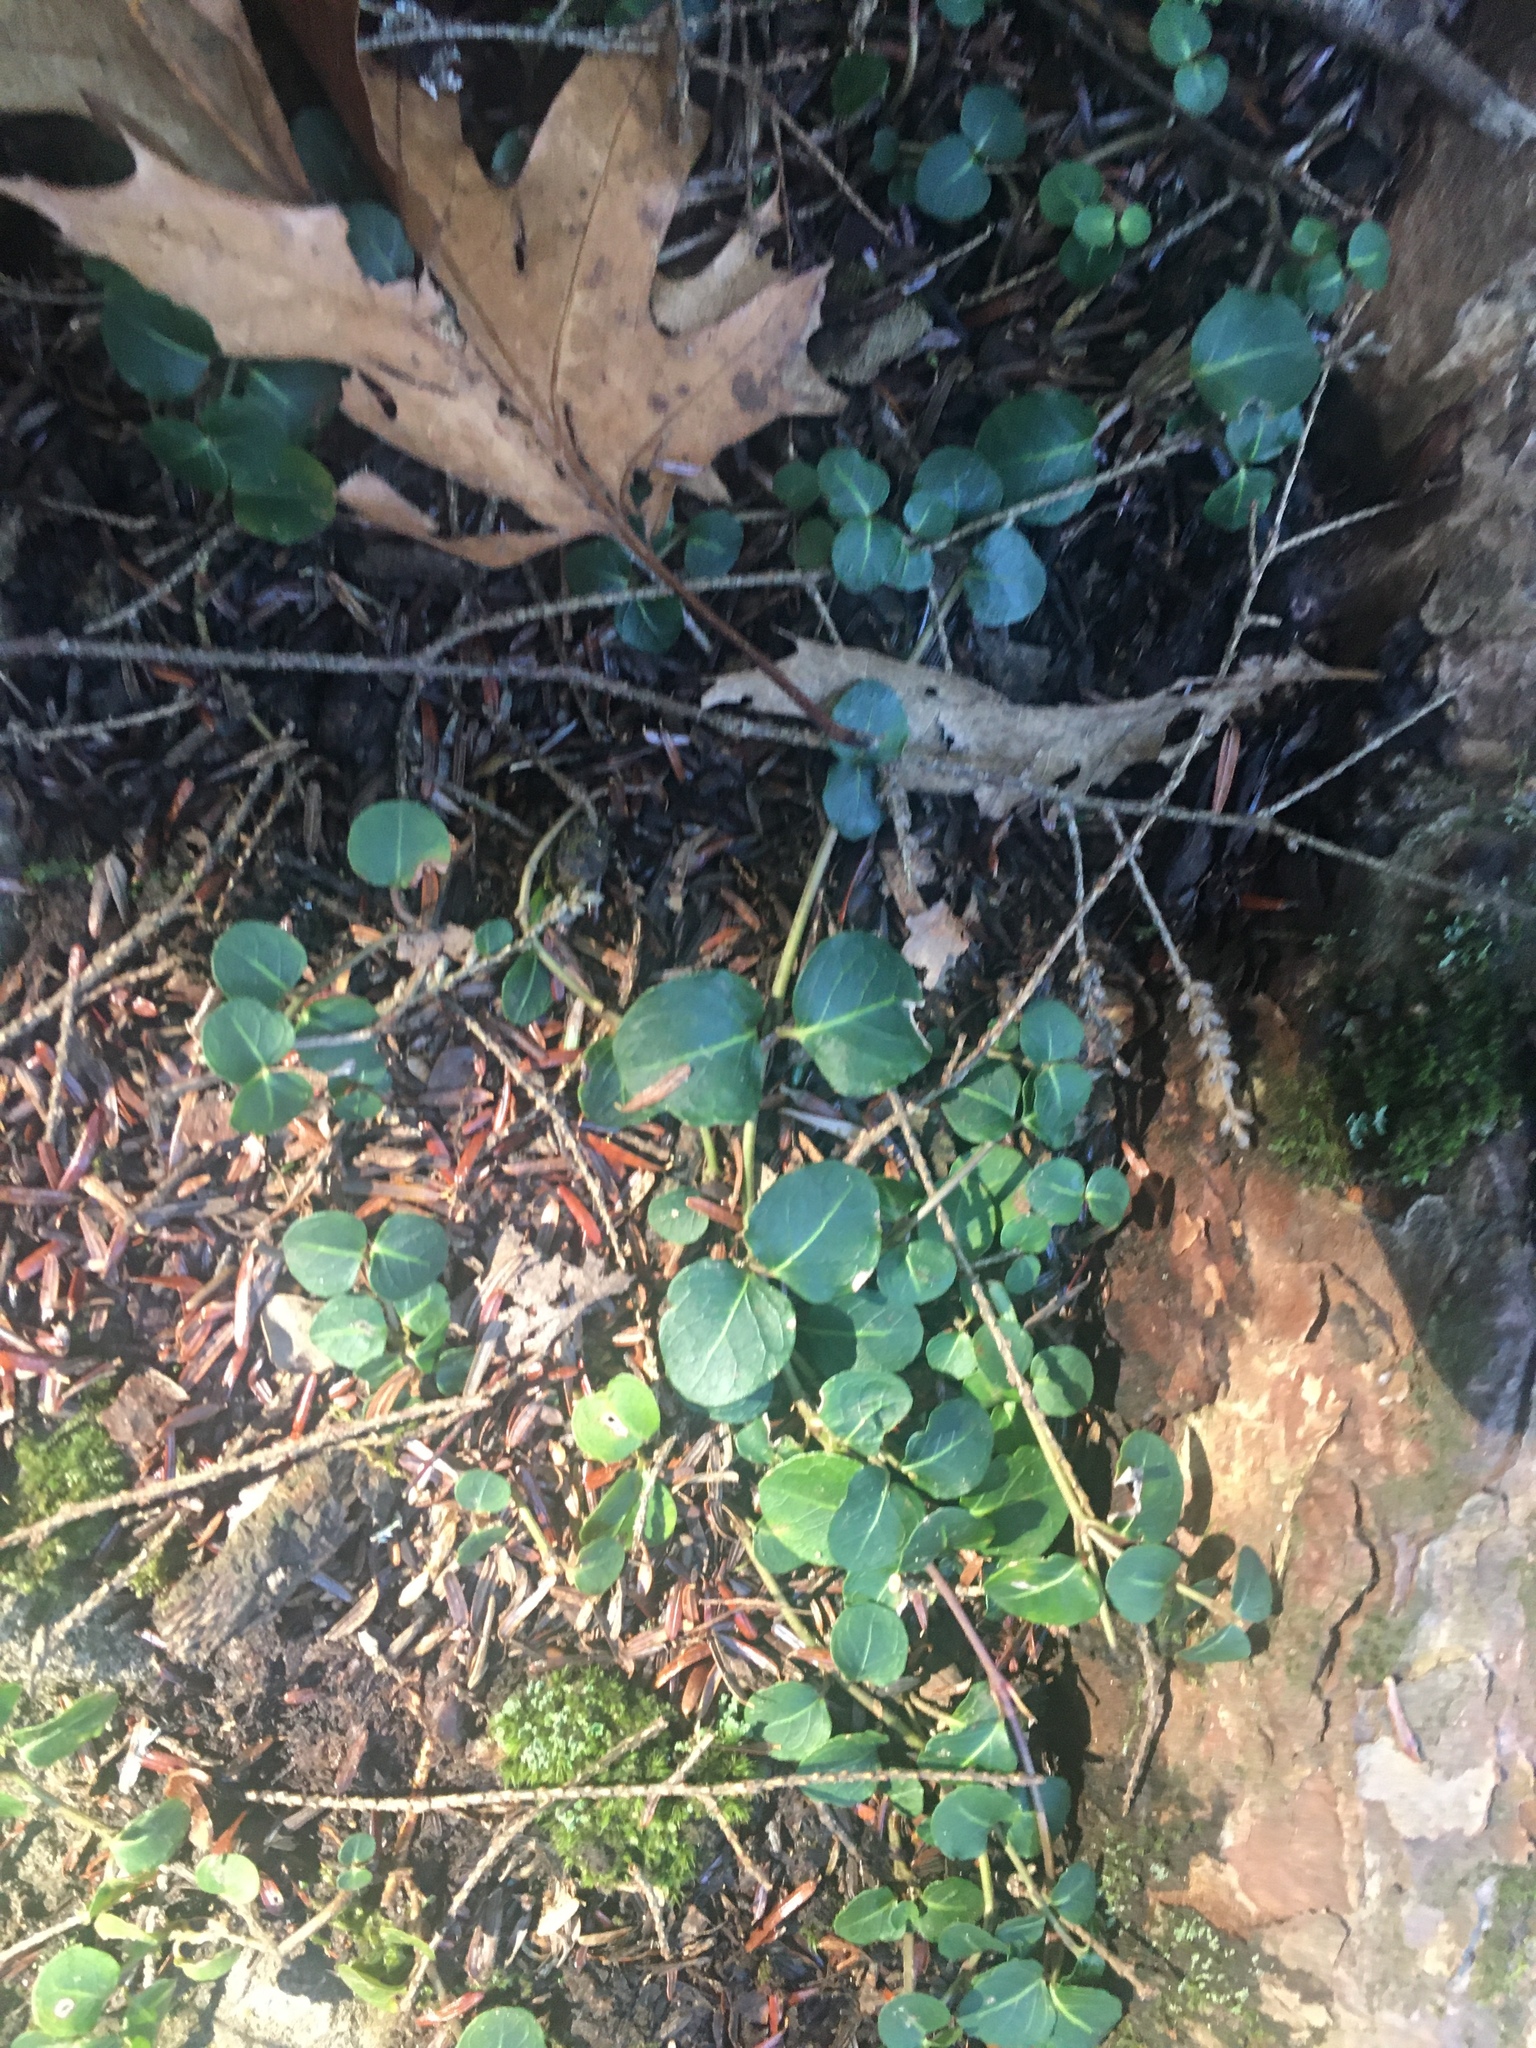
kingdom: Plantae
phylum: Tracheophyta
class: Magnoliopsida
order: Gentianales
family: Rubiaceae
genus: Mitchella
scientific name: Mitchella repens
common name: Partridge-berry
